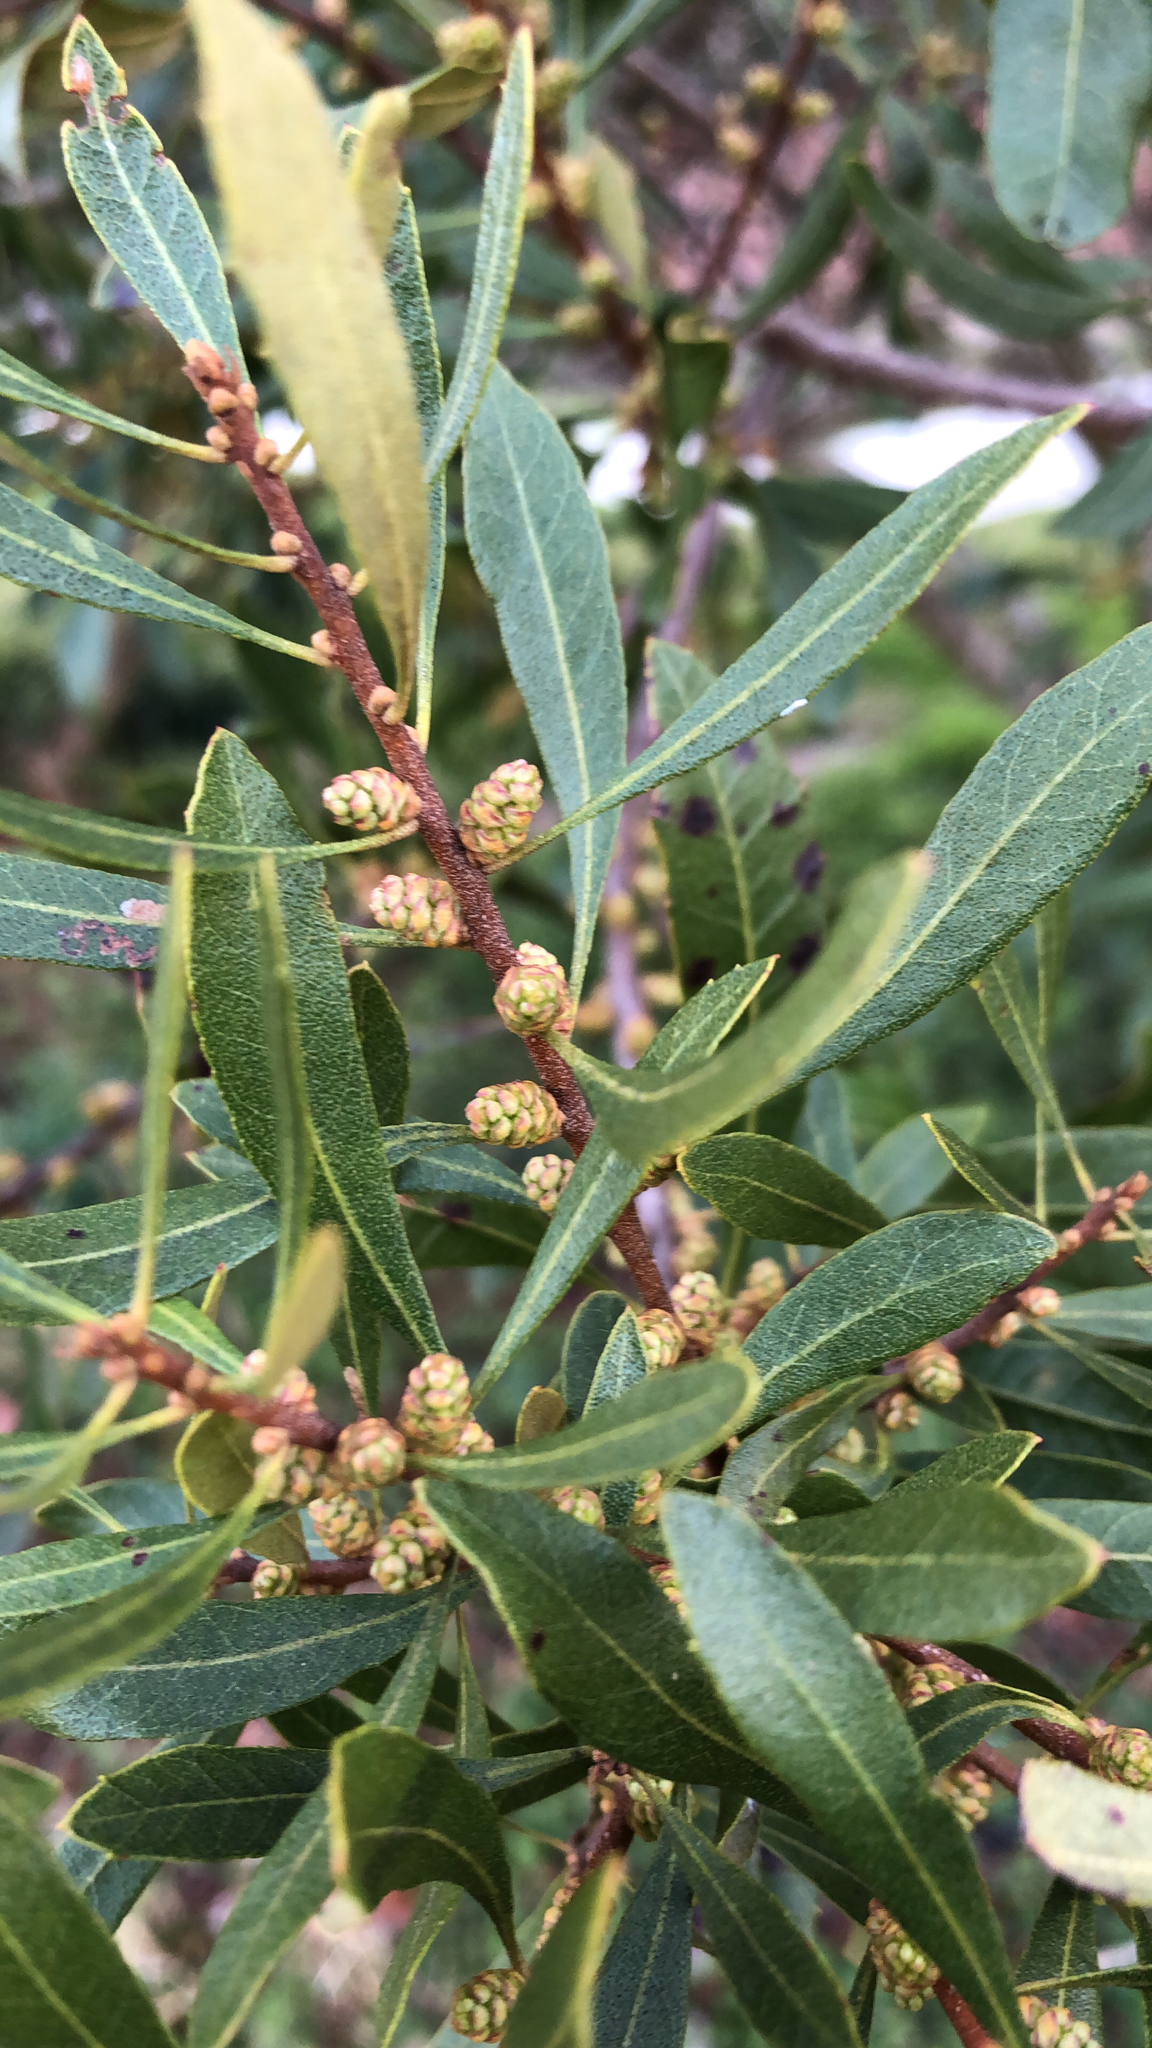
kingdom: Plantae
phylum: Tracheophyta
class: Magnoliopsida
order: Fagales
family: Myricaceae
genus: Morella
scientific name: Morella cerifera
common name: Wax myrtle
